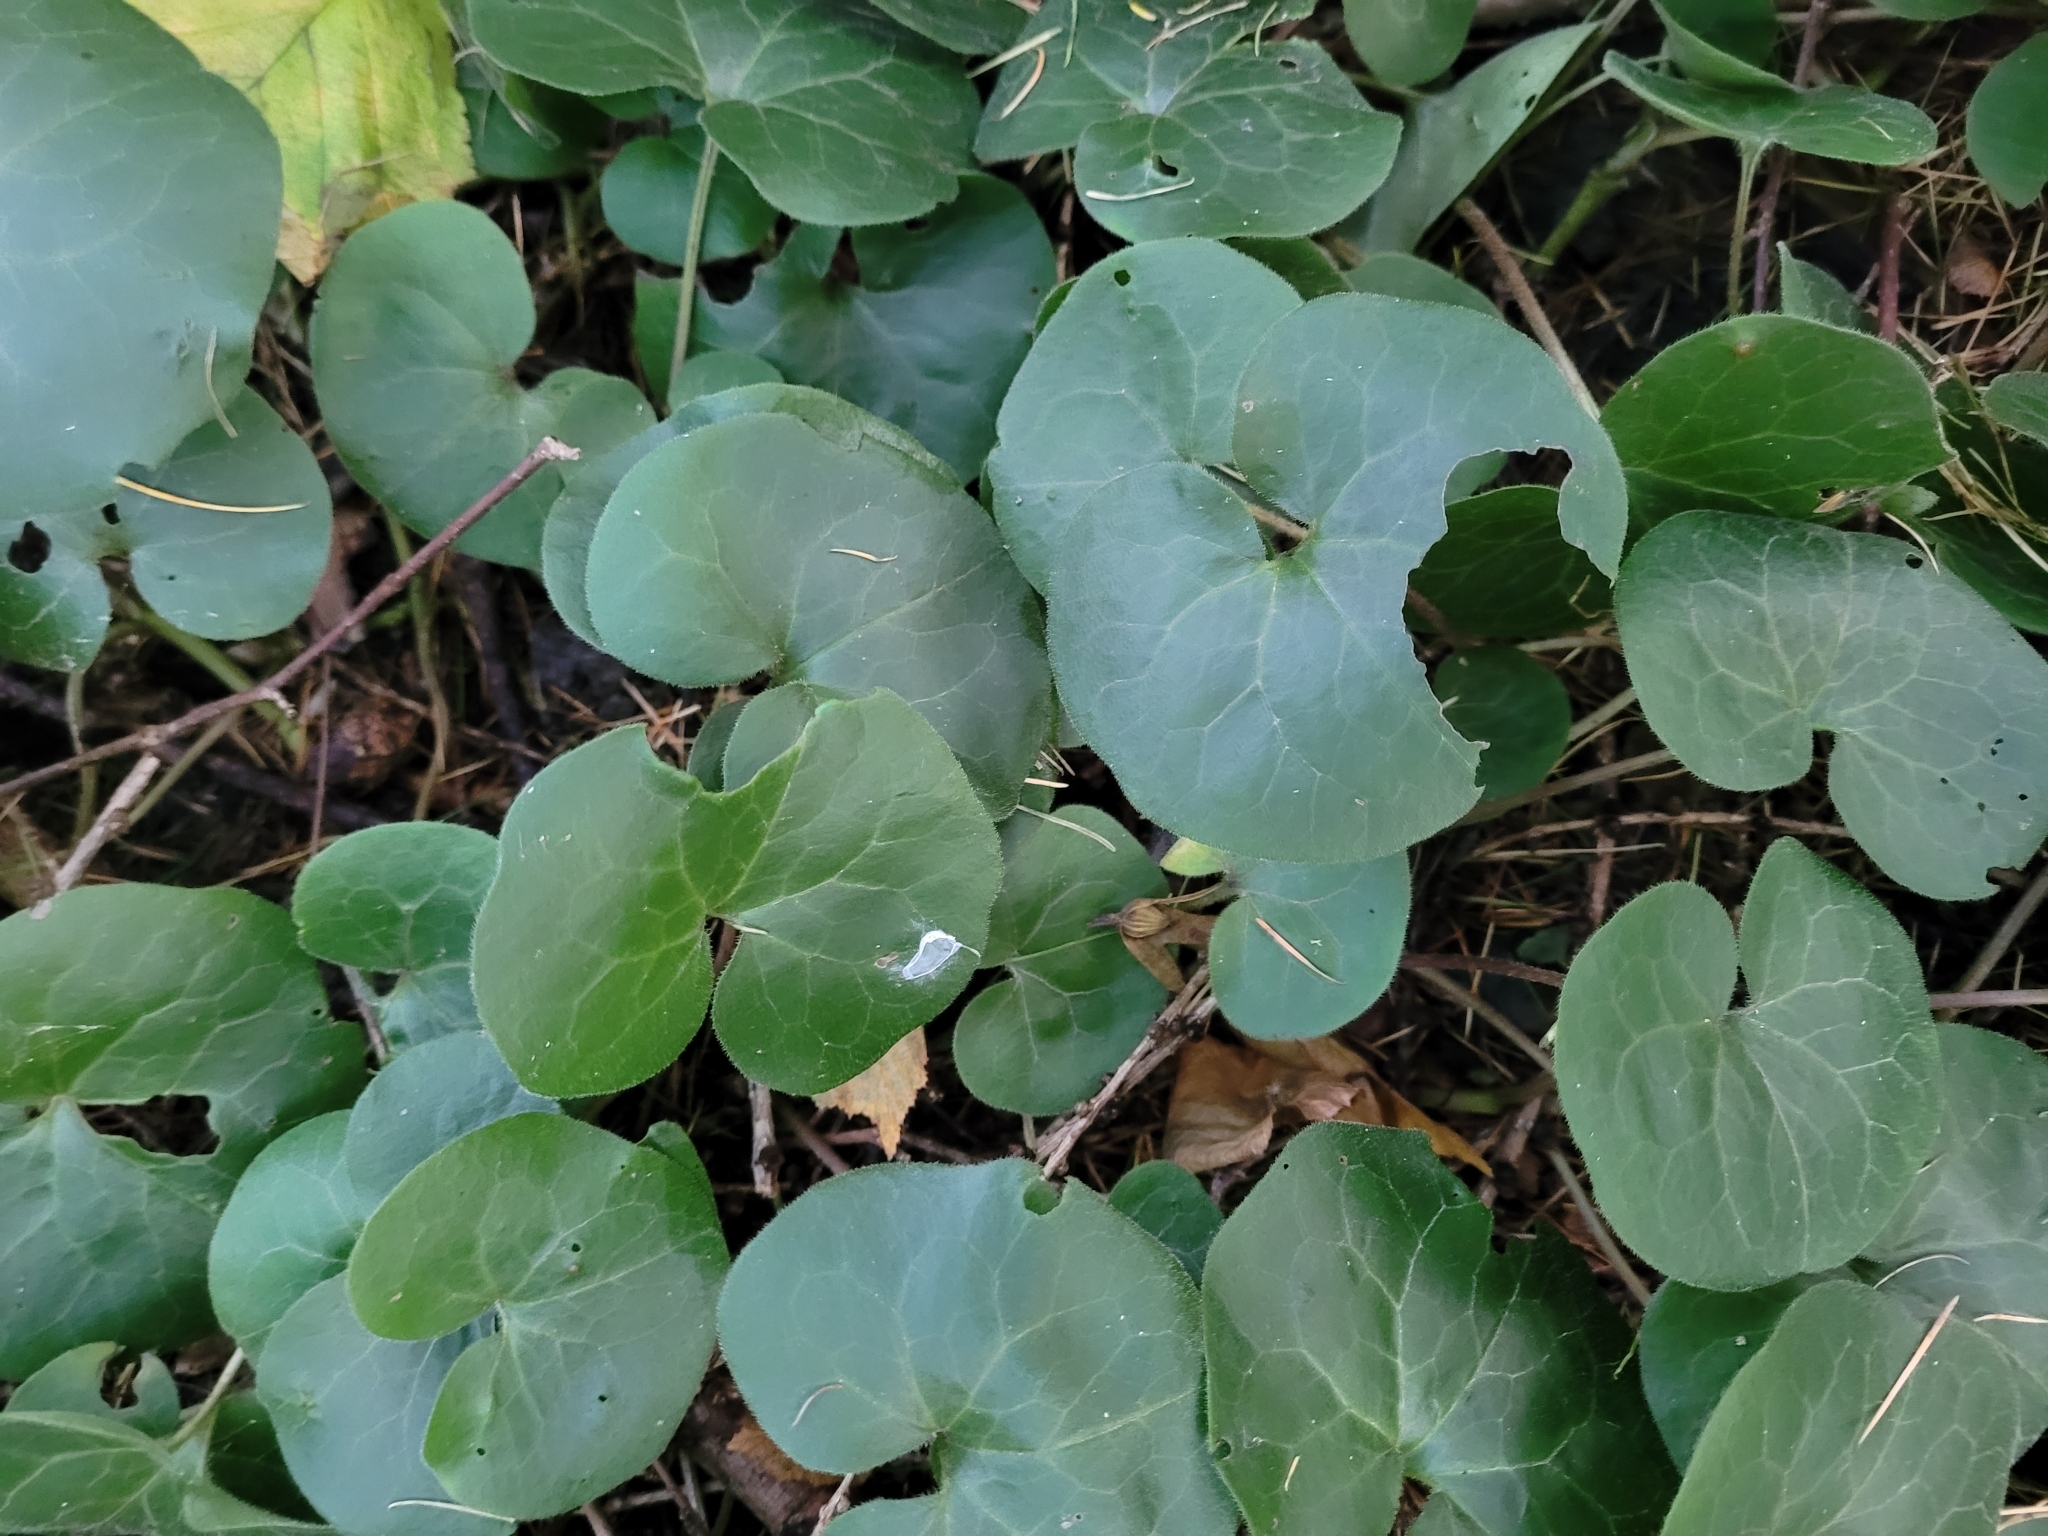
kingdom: Plantae
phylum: Tracheophyta
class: Magnoliopsida
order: Piperales
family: Aristolochiaceae
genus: Asarum
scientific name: Asarum europaeum
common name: Asarabacca
